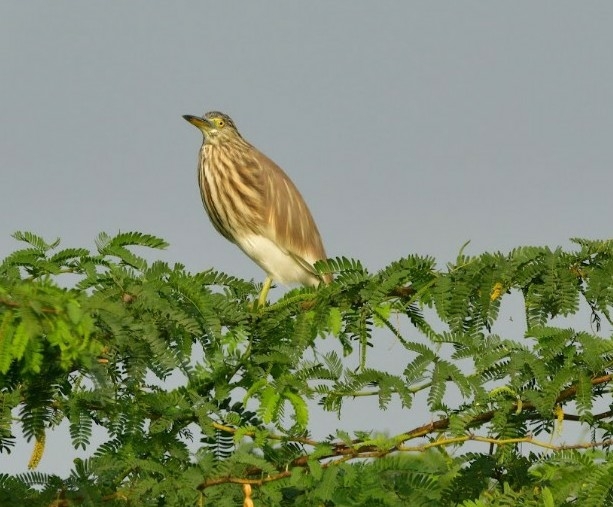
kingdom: Animalia
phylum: Chordata
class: Aves
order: Pelecaniformes
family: Ardeidae
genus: Ardeola
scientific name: Ardeola grayii
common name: Indian pond heron
